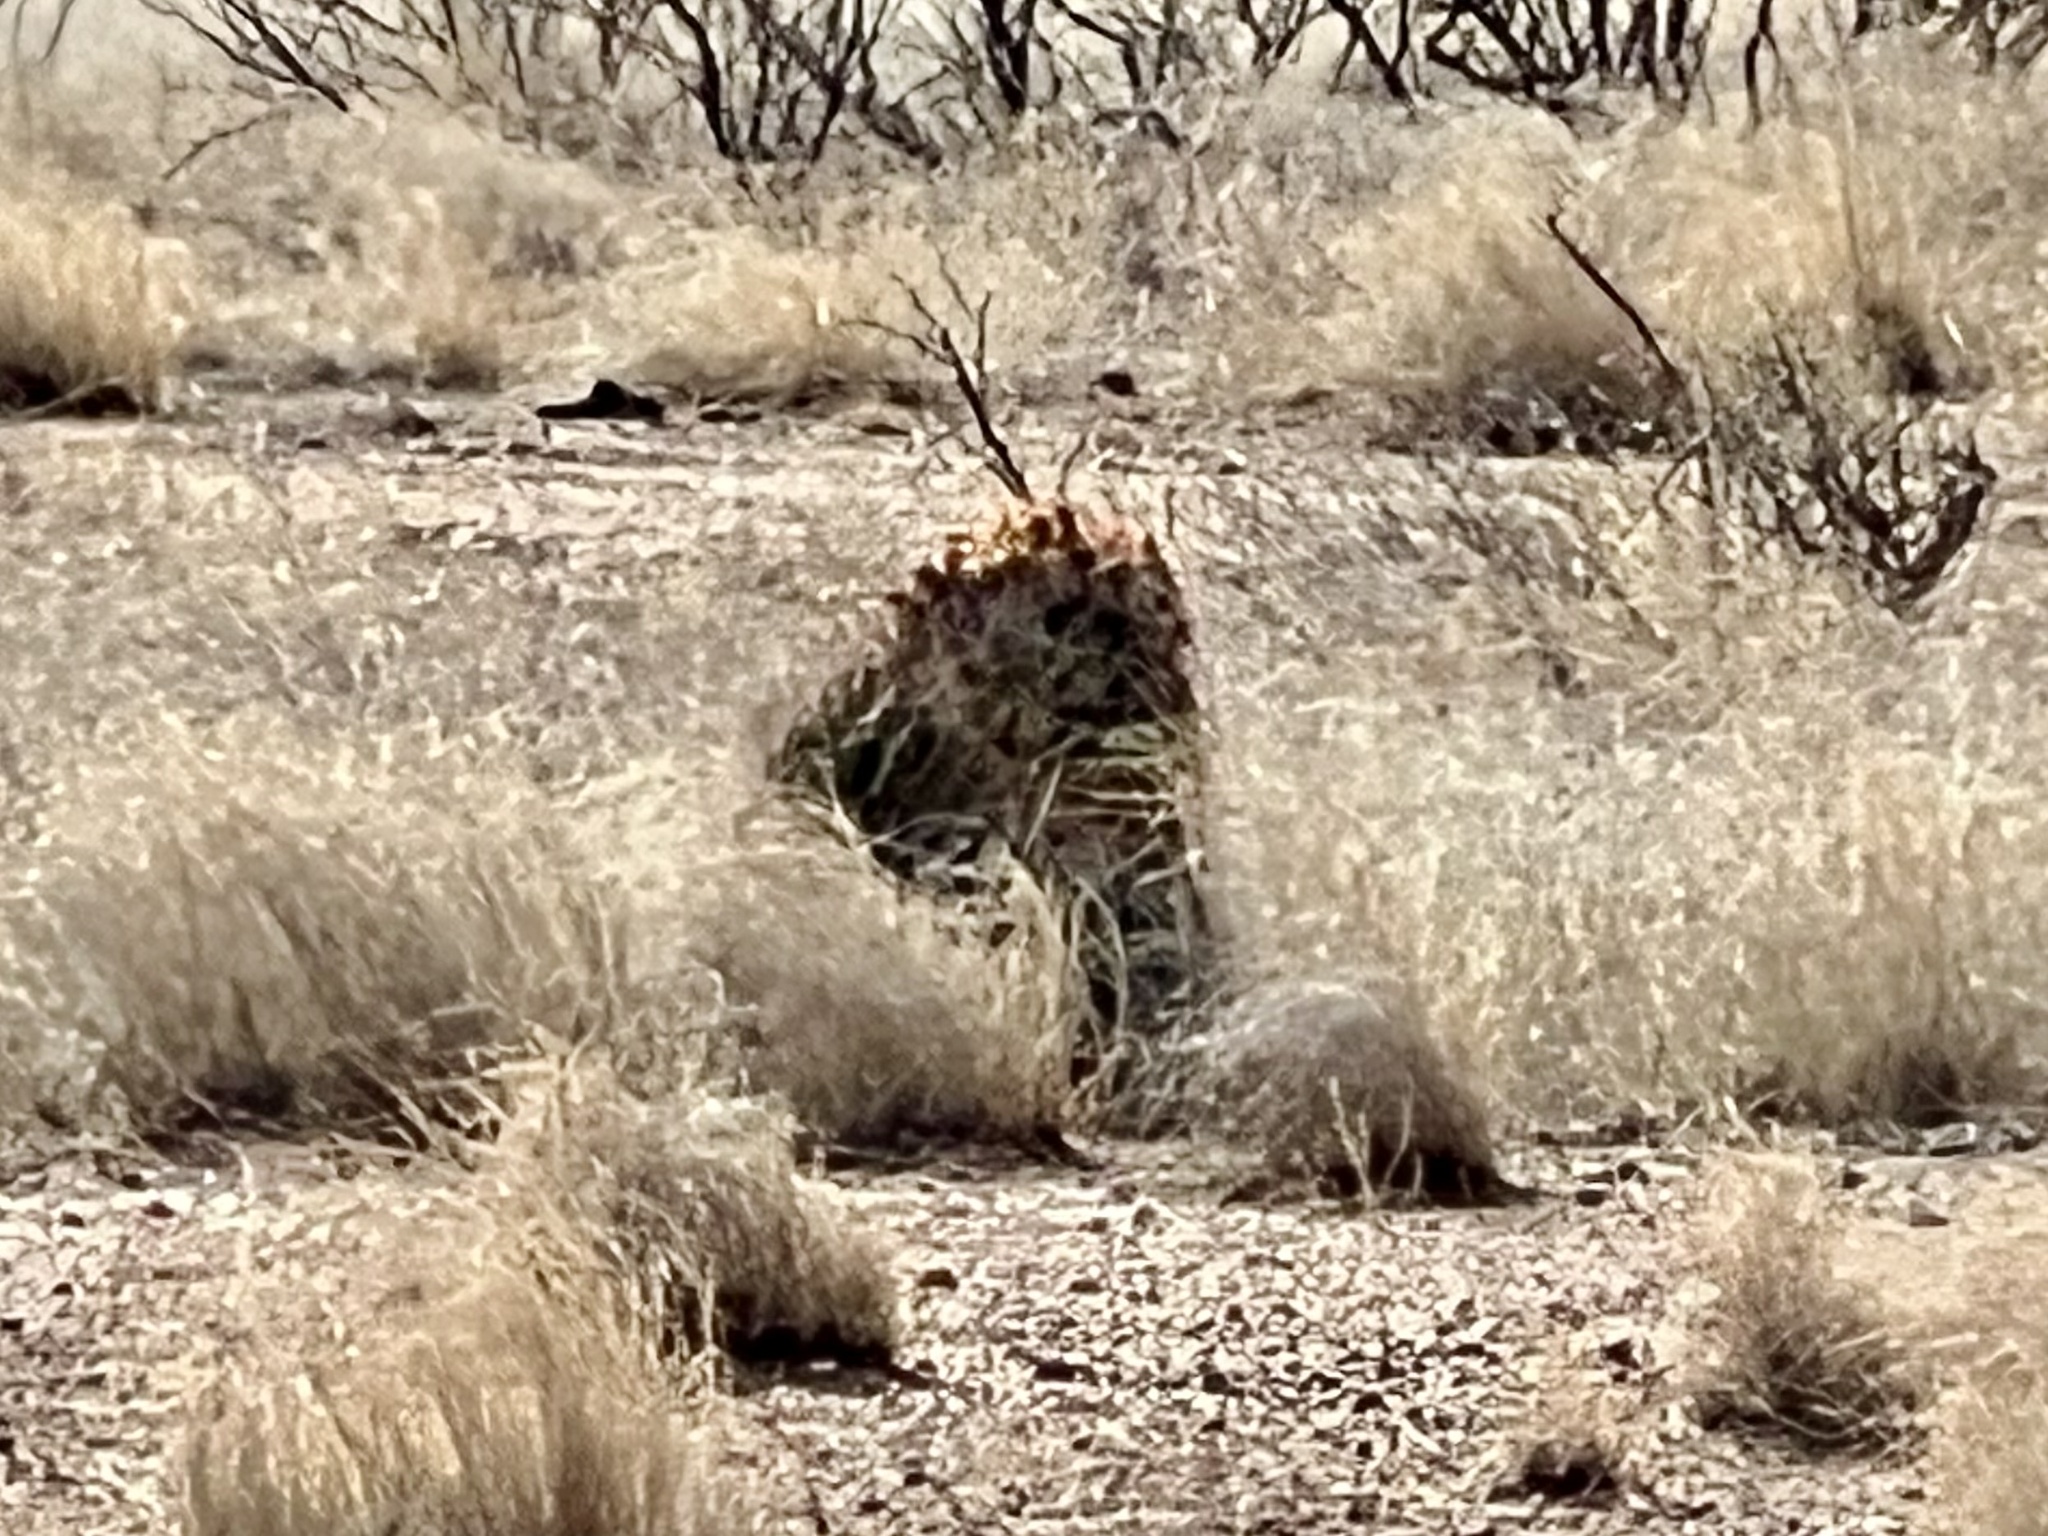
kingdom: Plantae
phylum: Tracheophyta
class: Magnoliopsida
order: Caryophyllales
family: Cactaceae
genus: Ferocactus
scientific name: Ferocactus wislizeni
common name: Candy barrel cactus
